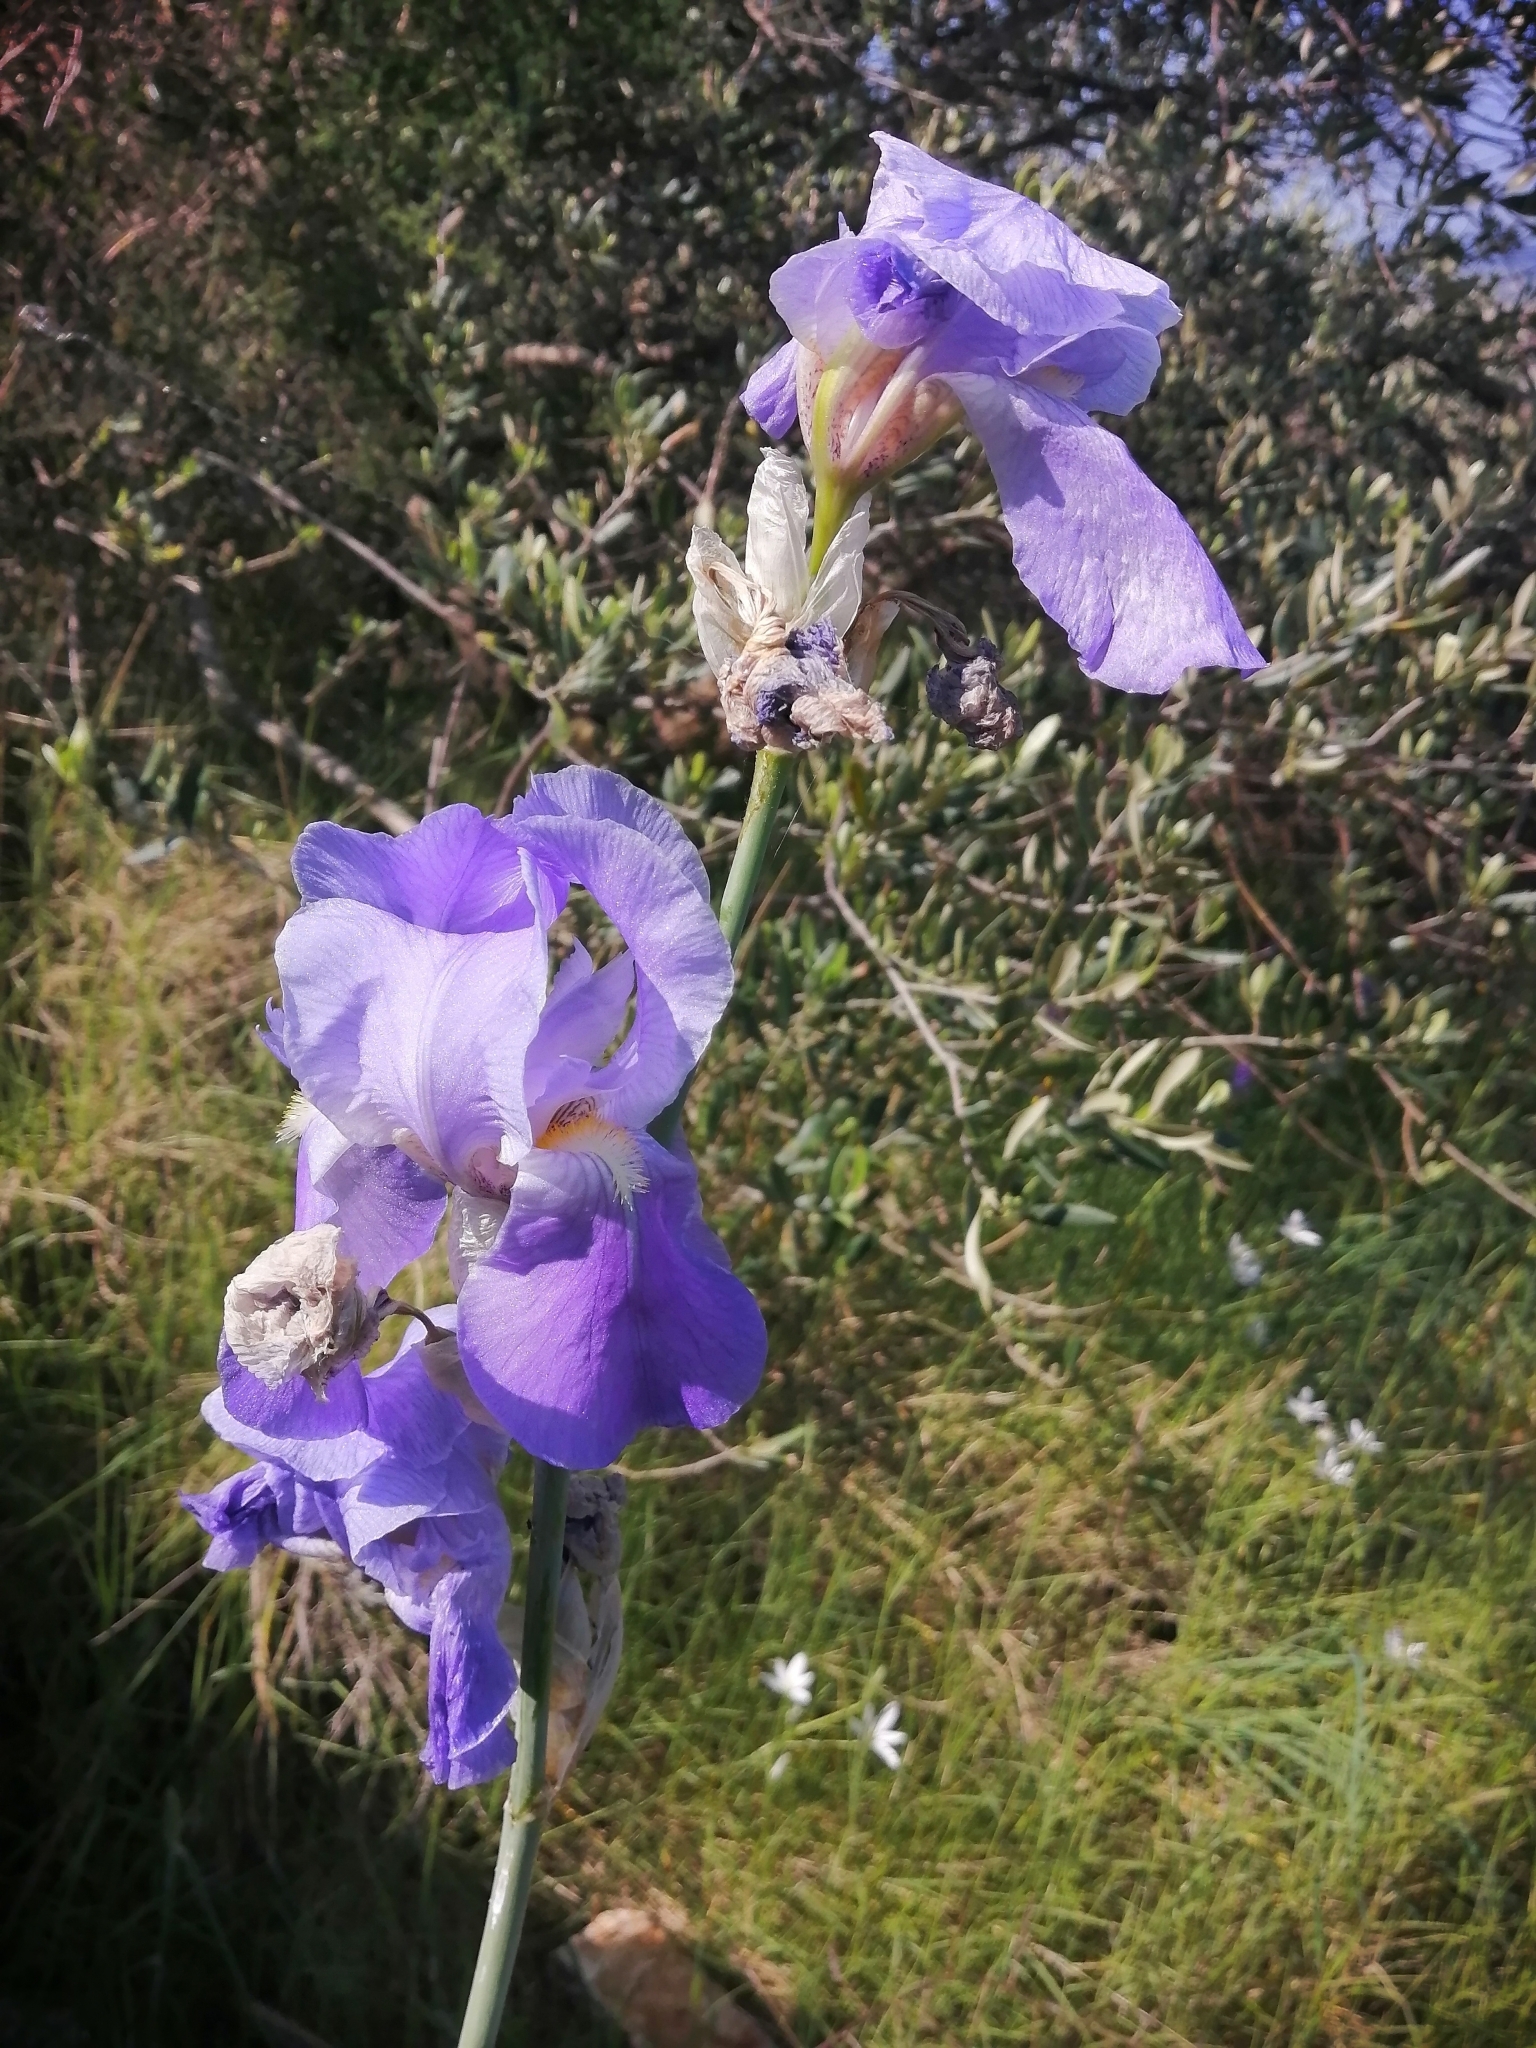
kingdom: Plantae
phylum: Tracheophyta
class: Liliopsida
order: Asparagales
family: Iridaceae
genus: Iris
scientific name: Iris pallida
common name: Sweet iris
